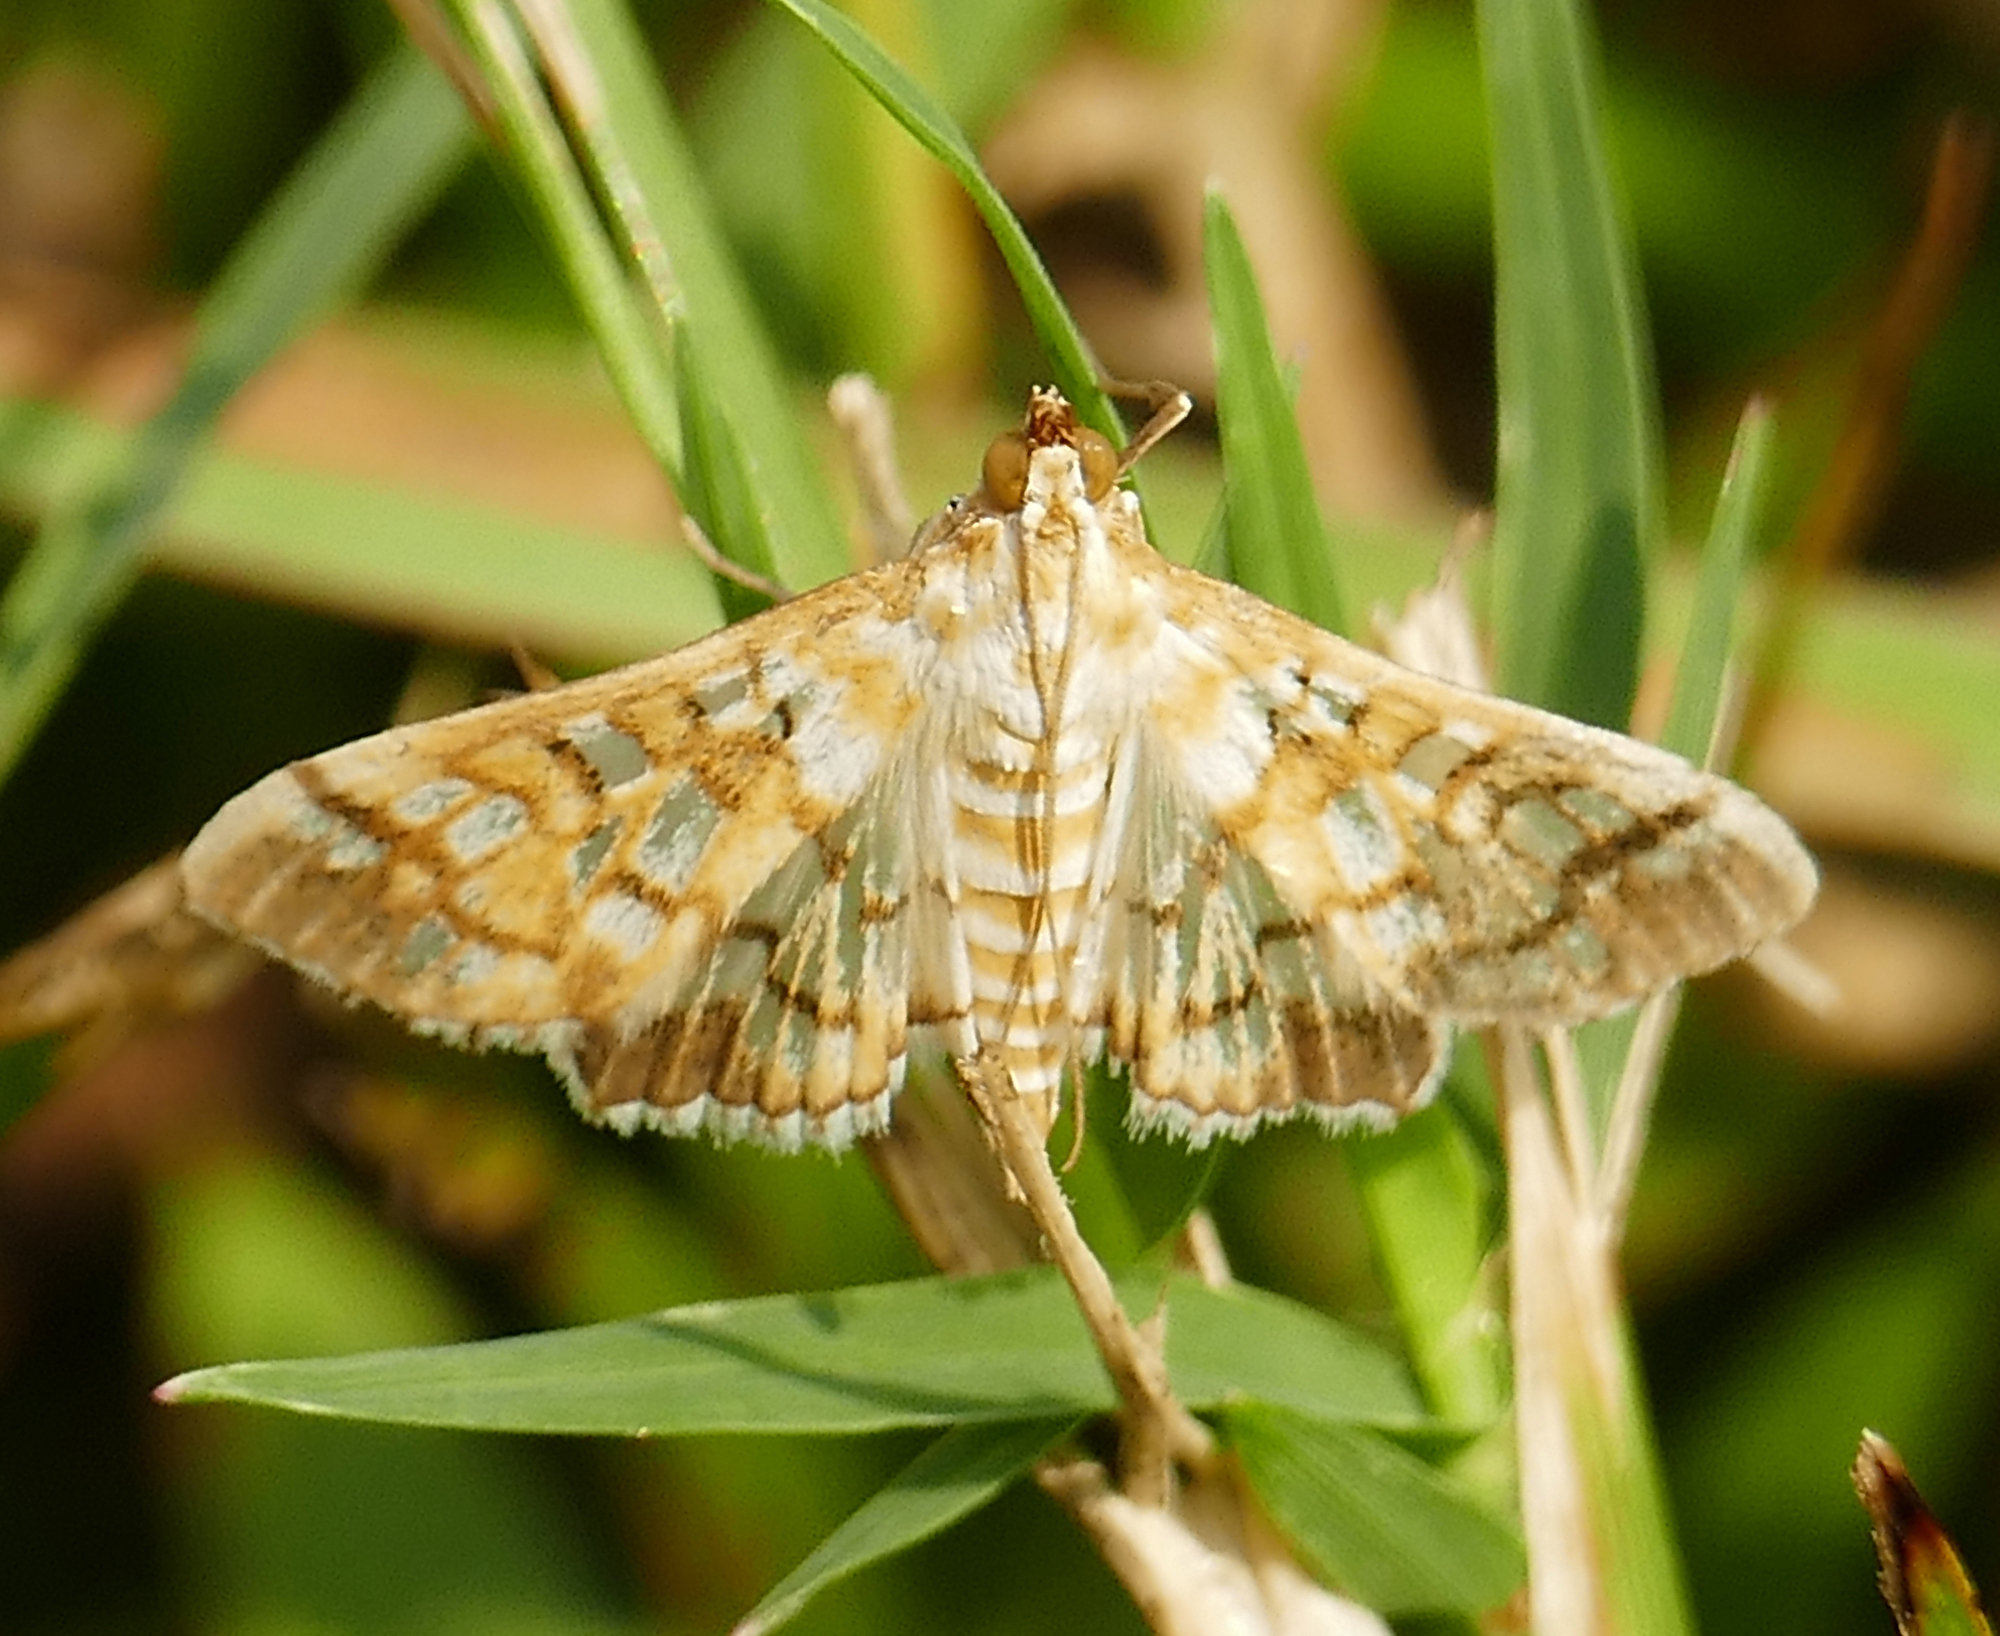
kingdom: Animalia
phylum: Arthropoda
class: Insecta
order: Lepidoptera
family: Crambidae
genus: Epipagis
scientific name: Epipagis fenestralis
